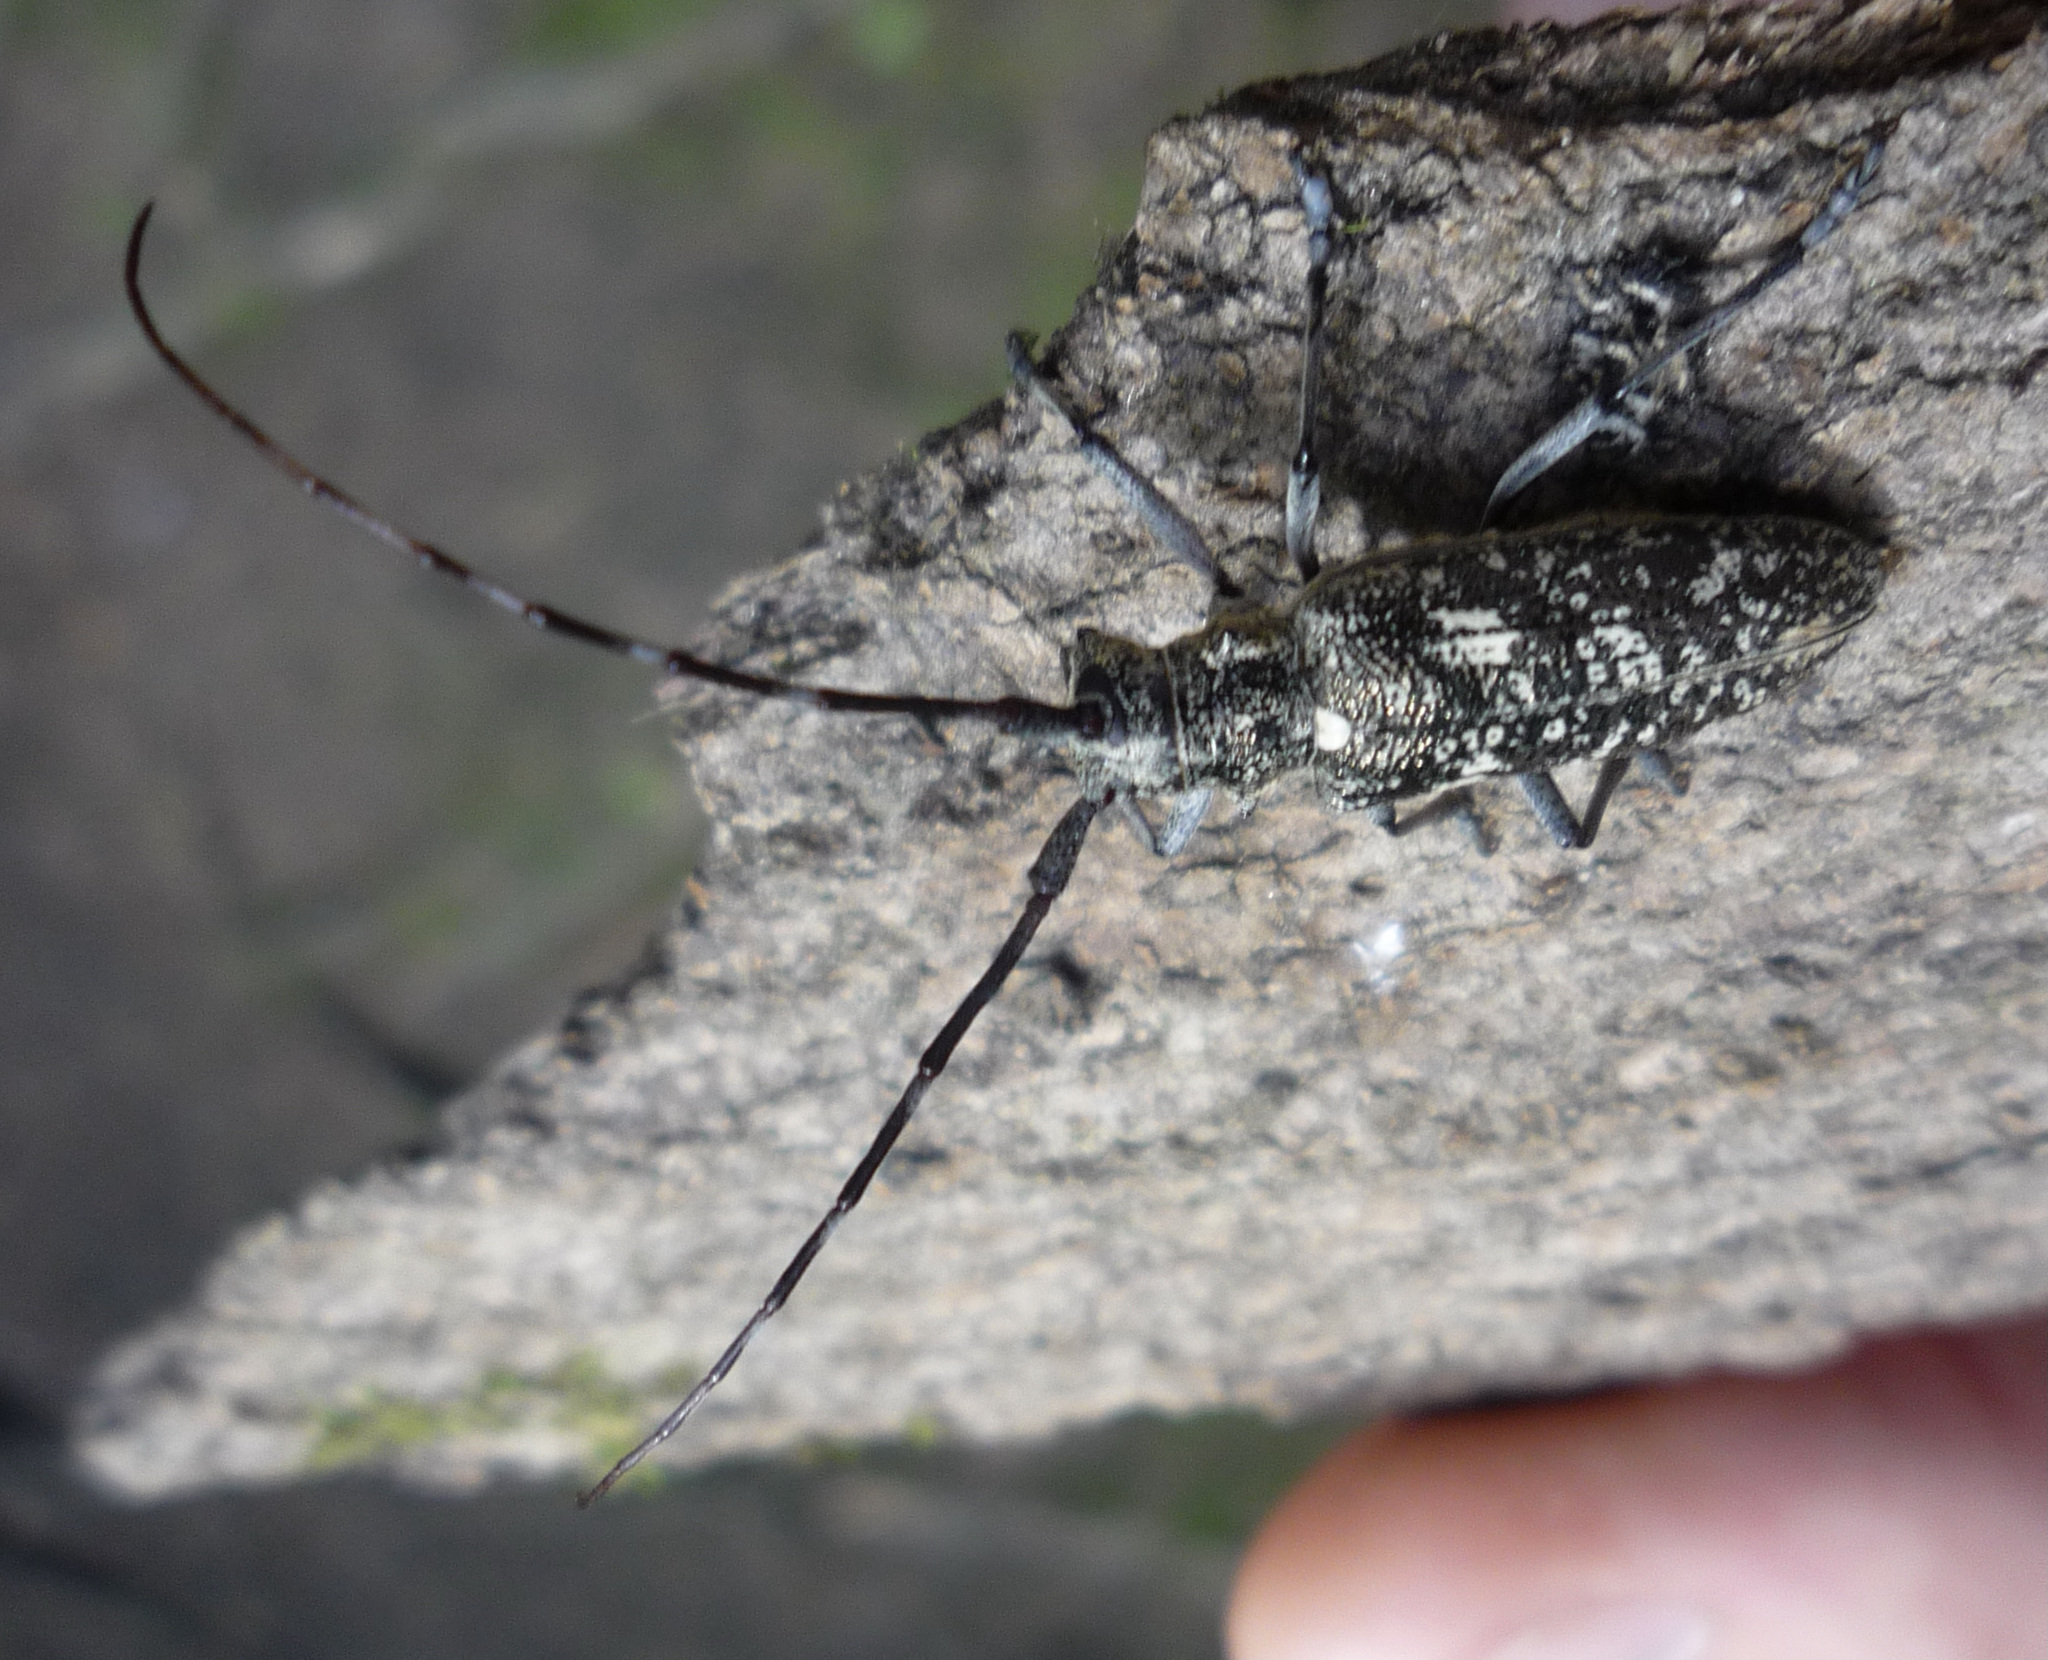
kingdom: Animalia
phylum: Arthropoda
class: Insecta
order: Coleoptera
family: Cerambycidae
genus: Monochamus
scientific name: Monochamus scutellatus
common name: White-spotted sawyer beetle
